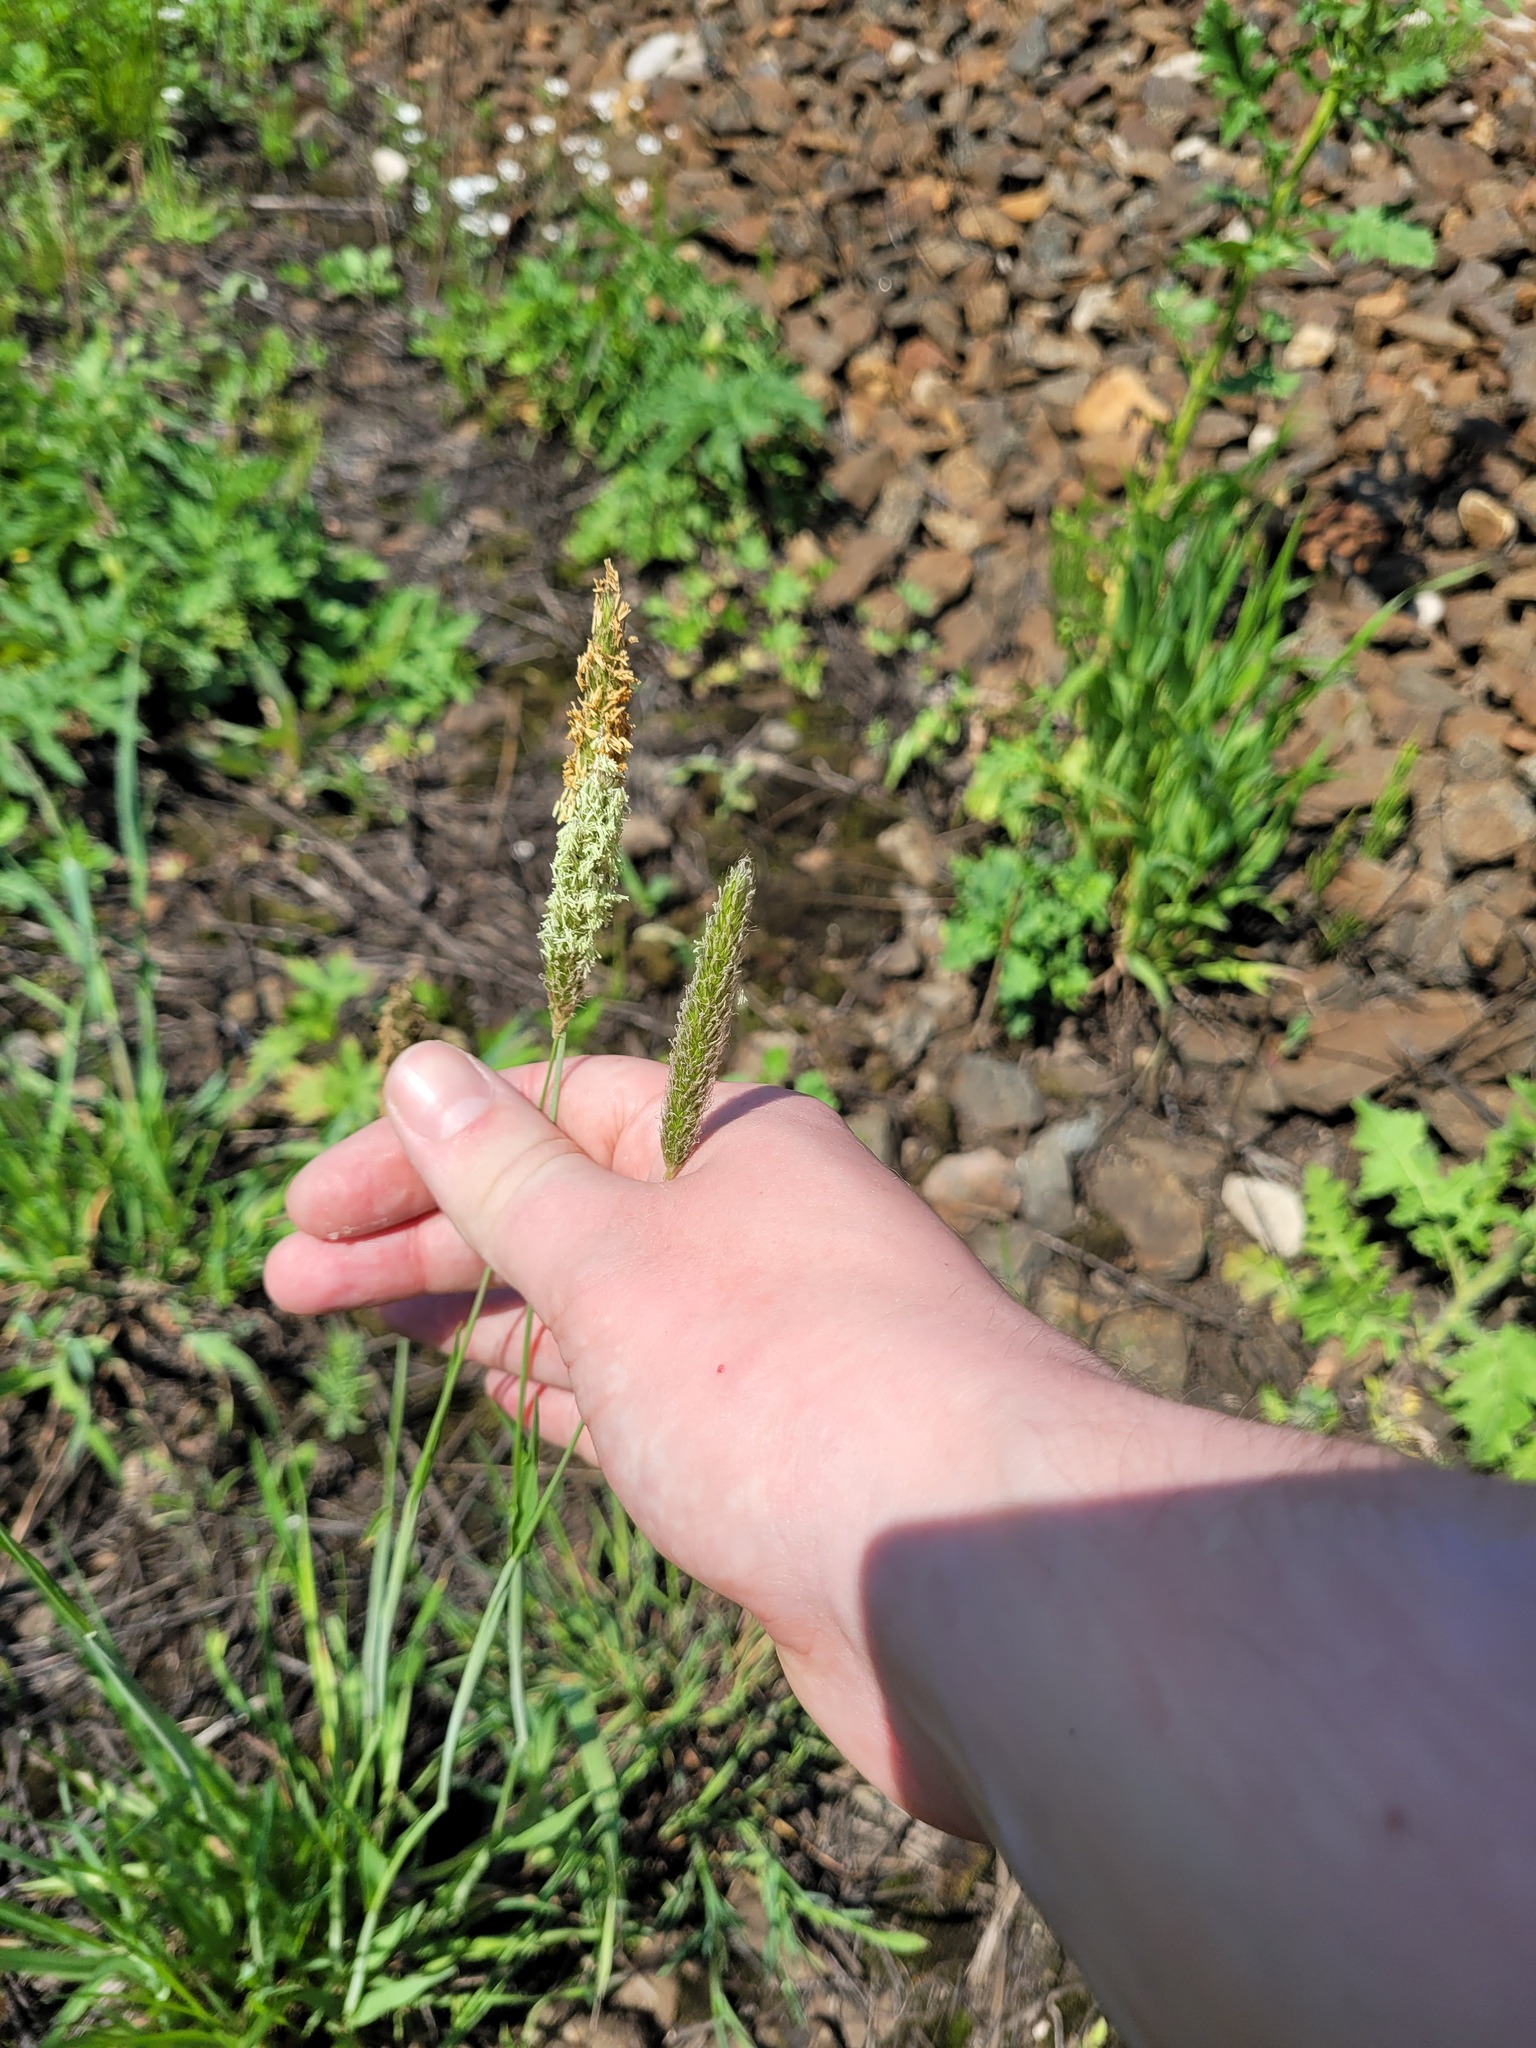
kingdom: Plantae
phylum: Tracheophyta
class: Liliopsida
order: Poales
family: Poaceae
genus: Alopecurus
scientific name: Alopecurus pratensis
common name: Meadow foxtail
